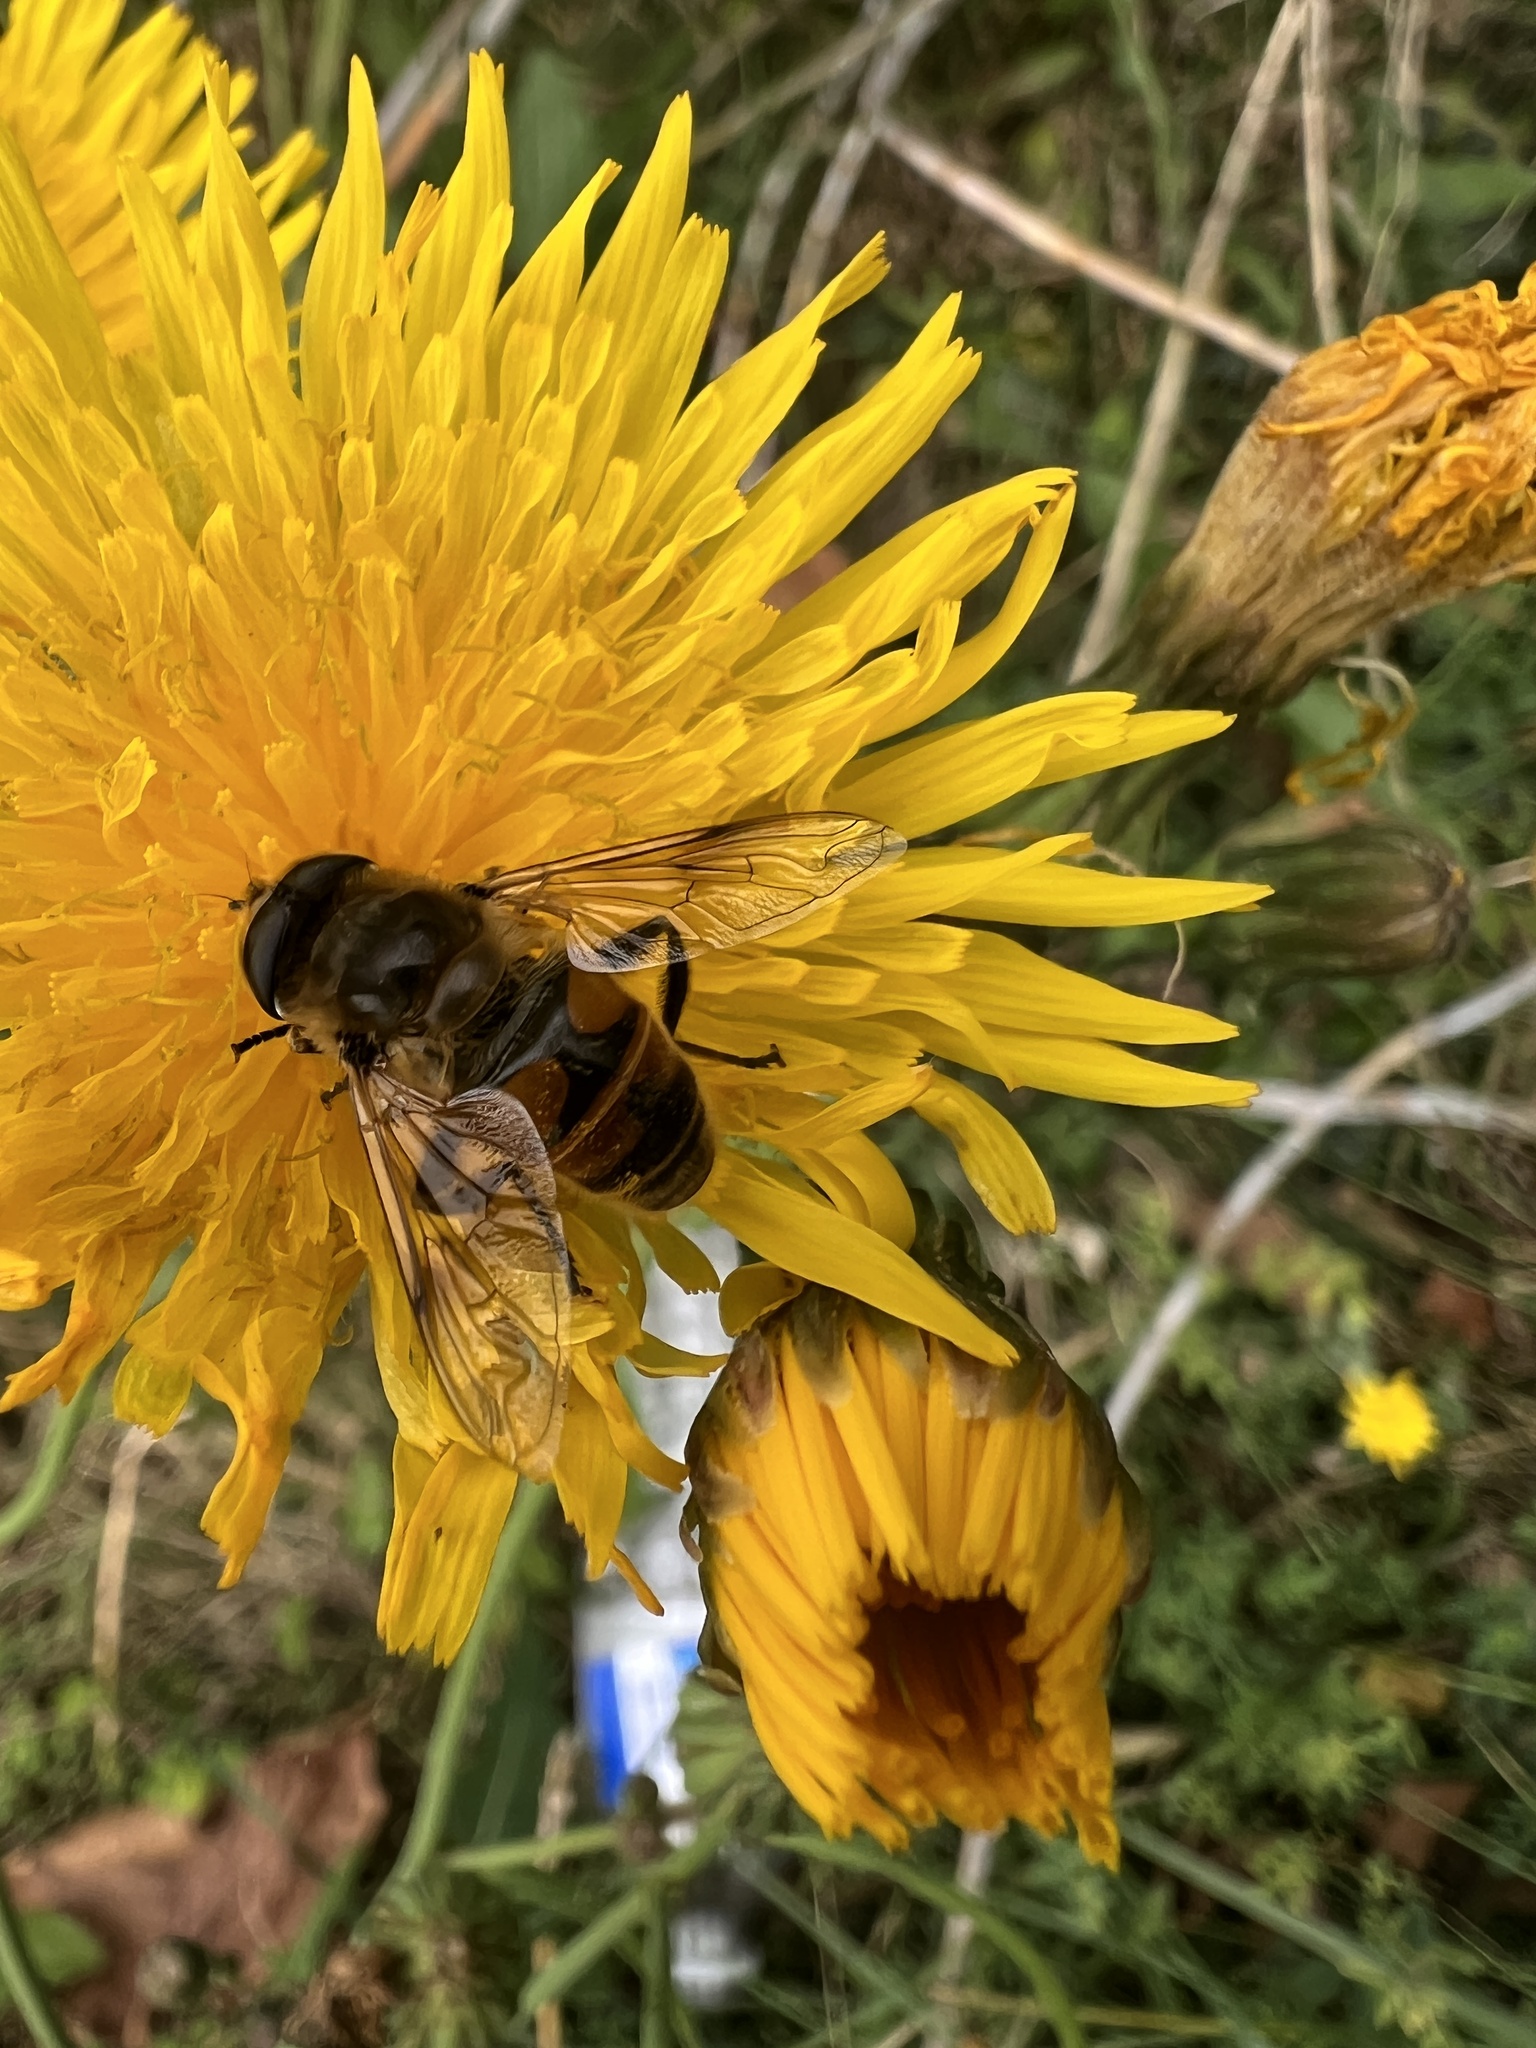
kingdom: Animalia
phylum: Arthropoda
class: Insecta
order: Diptera
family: Syrphidae
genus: Eristalis
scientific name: Eristalis tenax
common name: Drone fly
